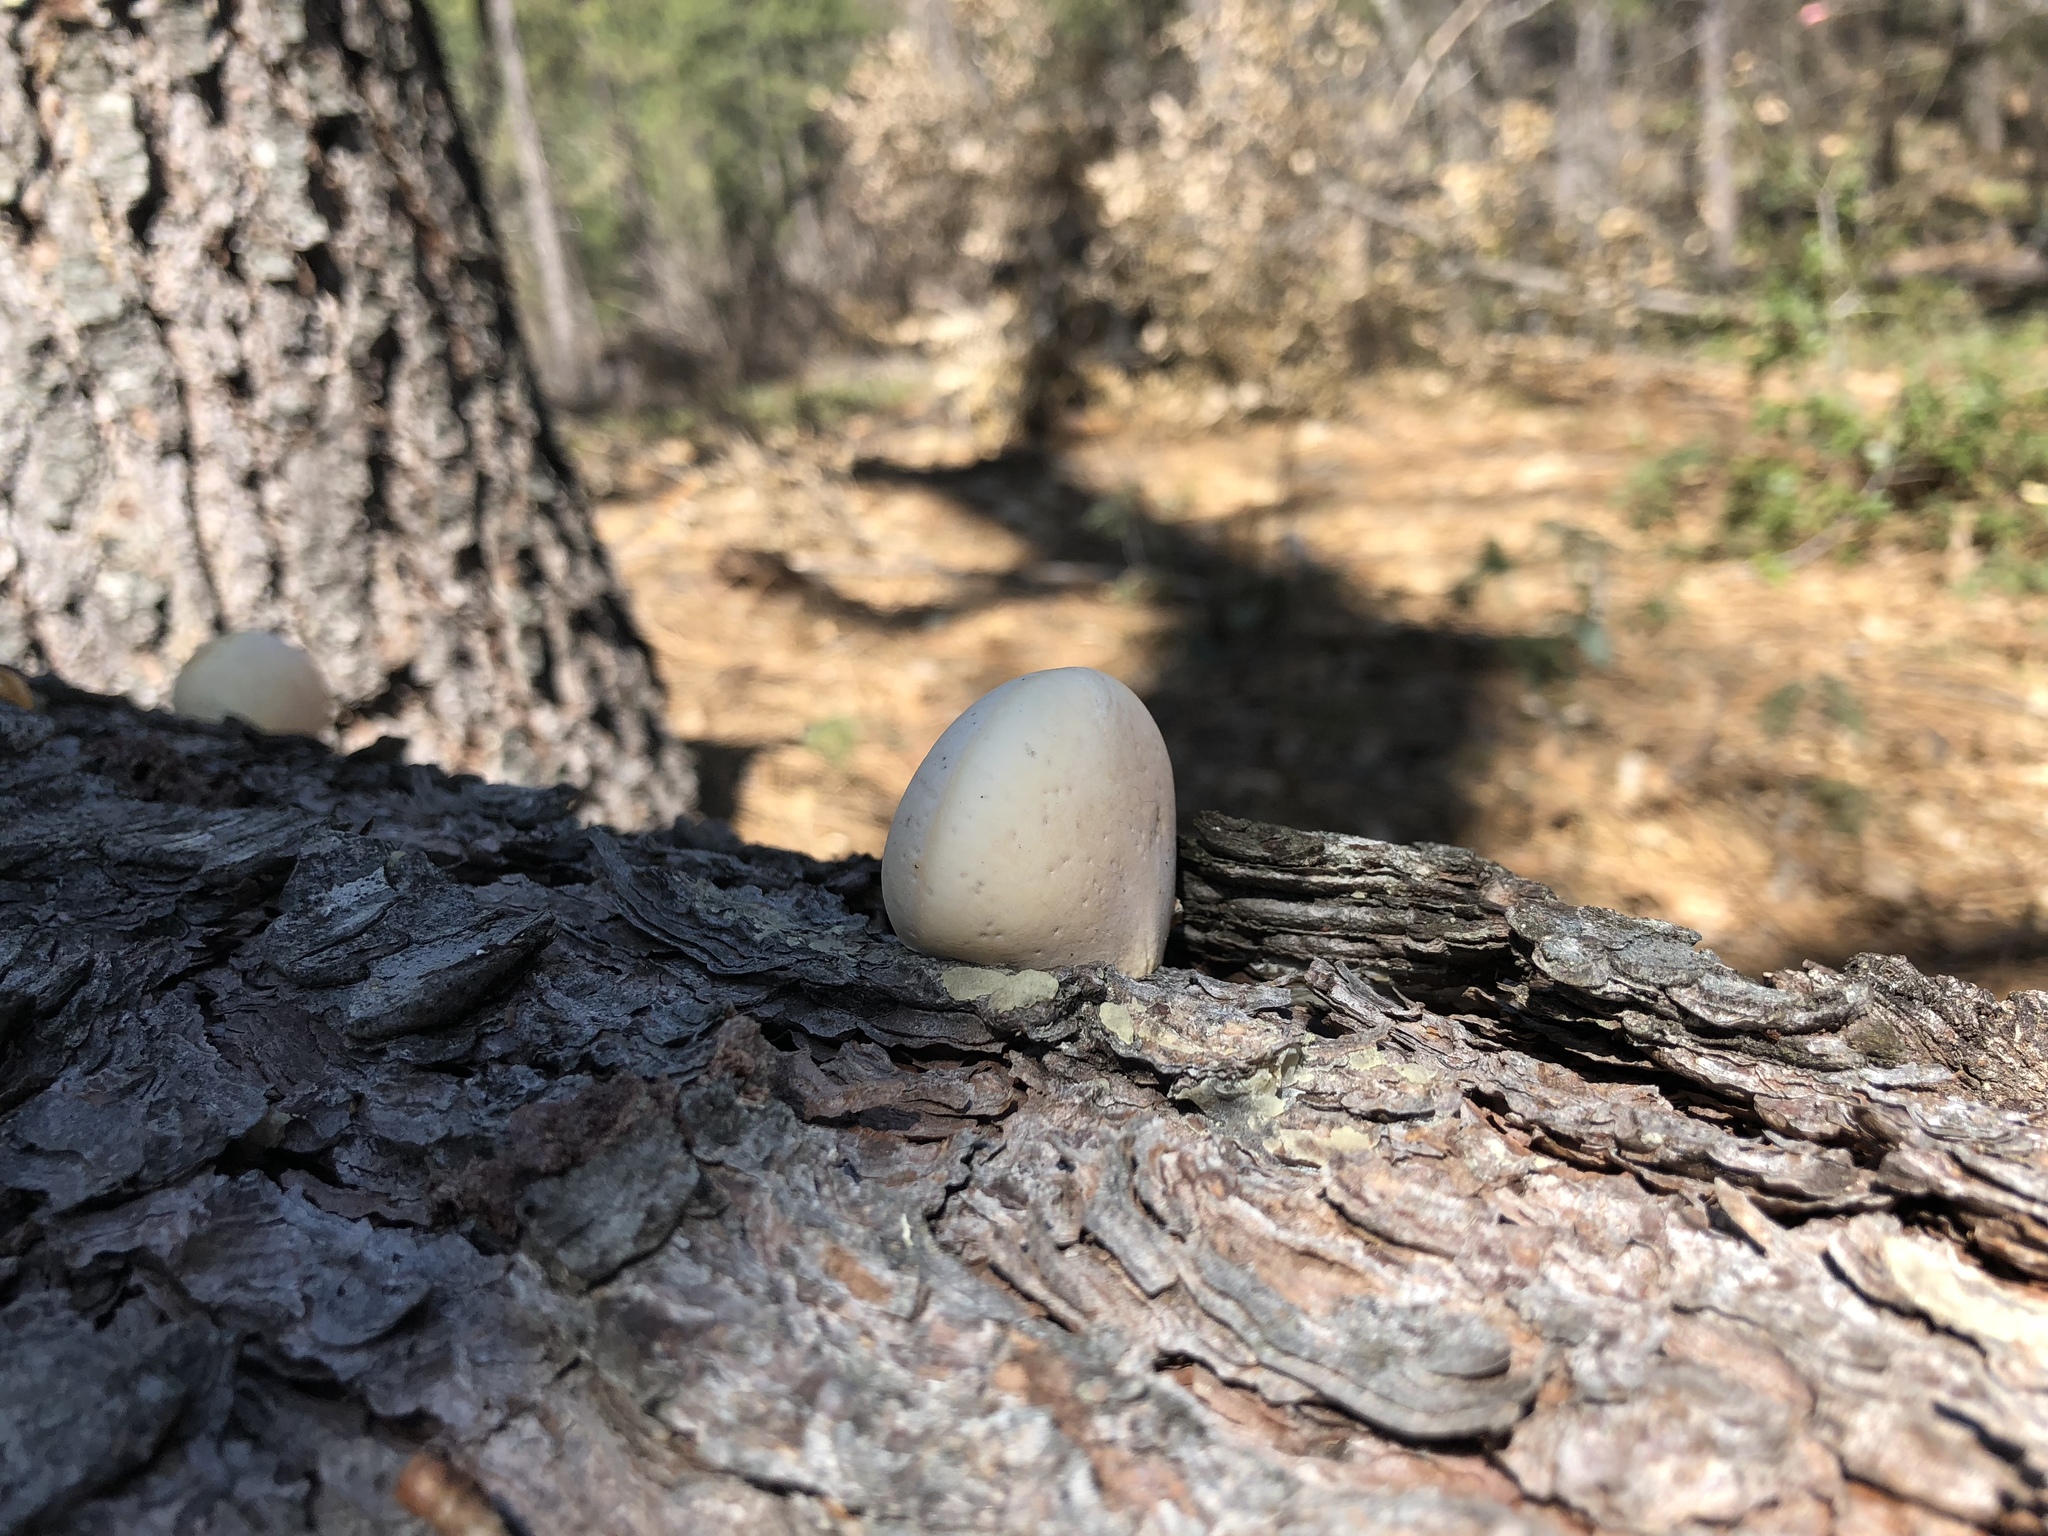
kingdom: Fungi
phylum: Basidiomycota
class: Agaricomycetes
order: Polyporales
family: Polyporaceae
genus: Cryptoporus
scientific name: Cryptoporus volvatus
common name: Veiled polypore
